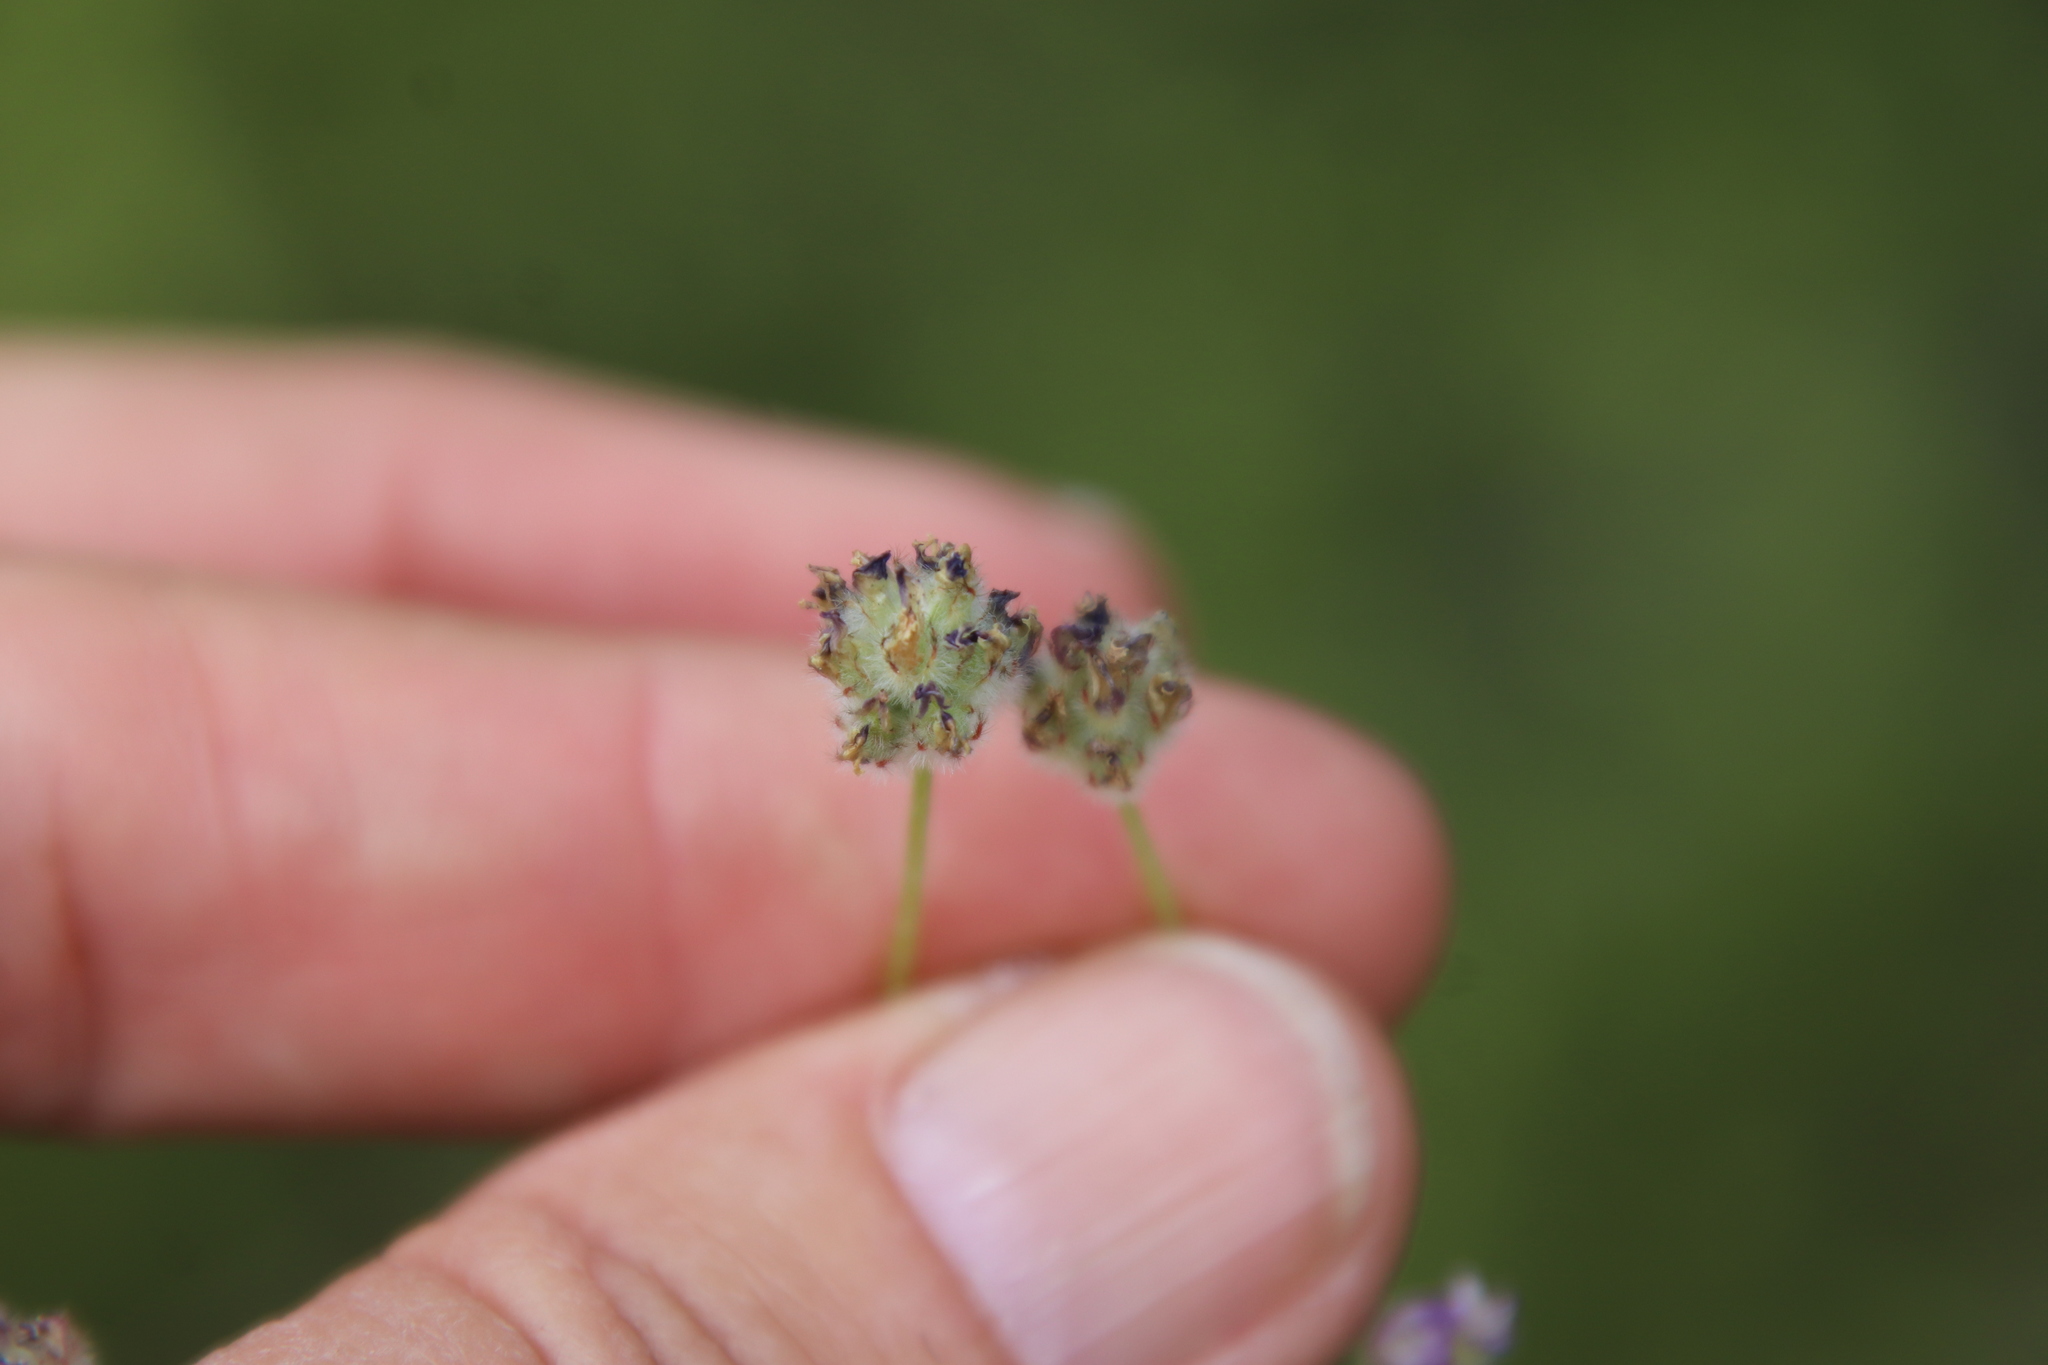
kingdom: Plantae
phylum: Tracheophyta
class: Magnoliopsida
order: Fabales
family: Fabaceae
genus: Astragalus
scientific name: Astragalus didymocarpus
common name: Dwarf white milkvetch
